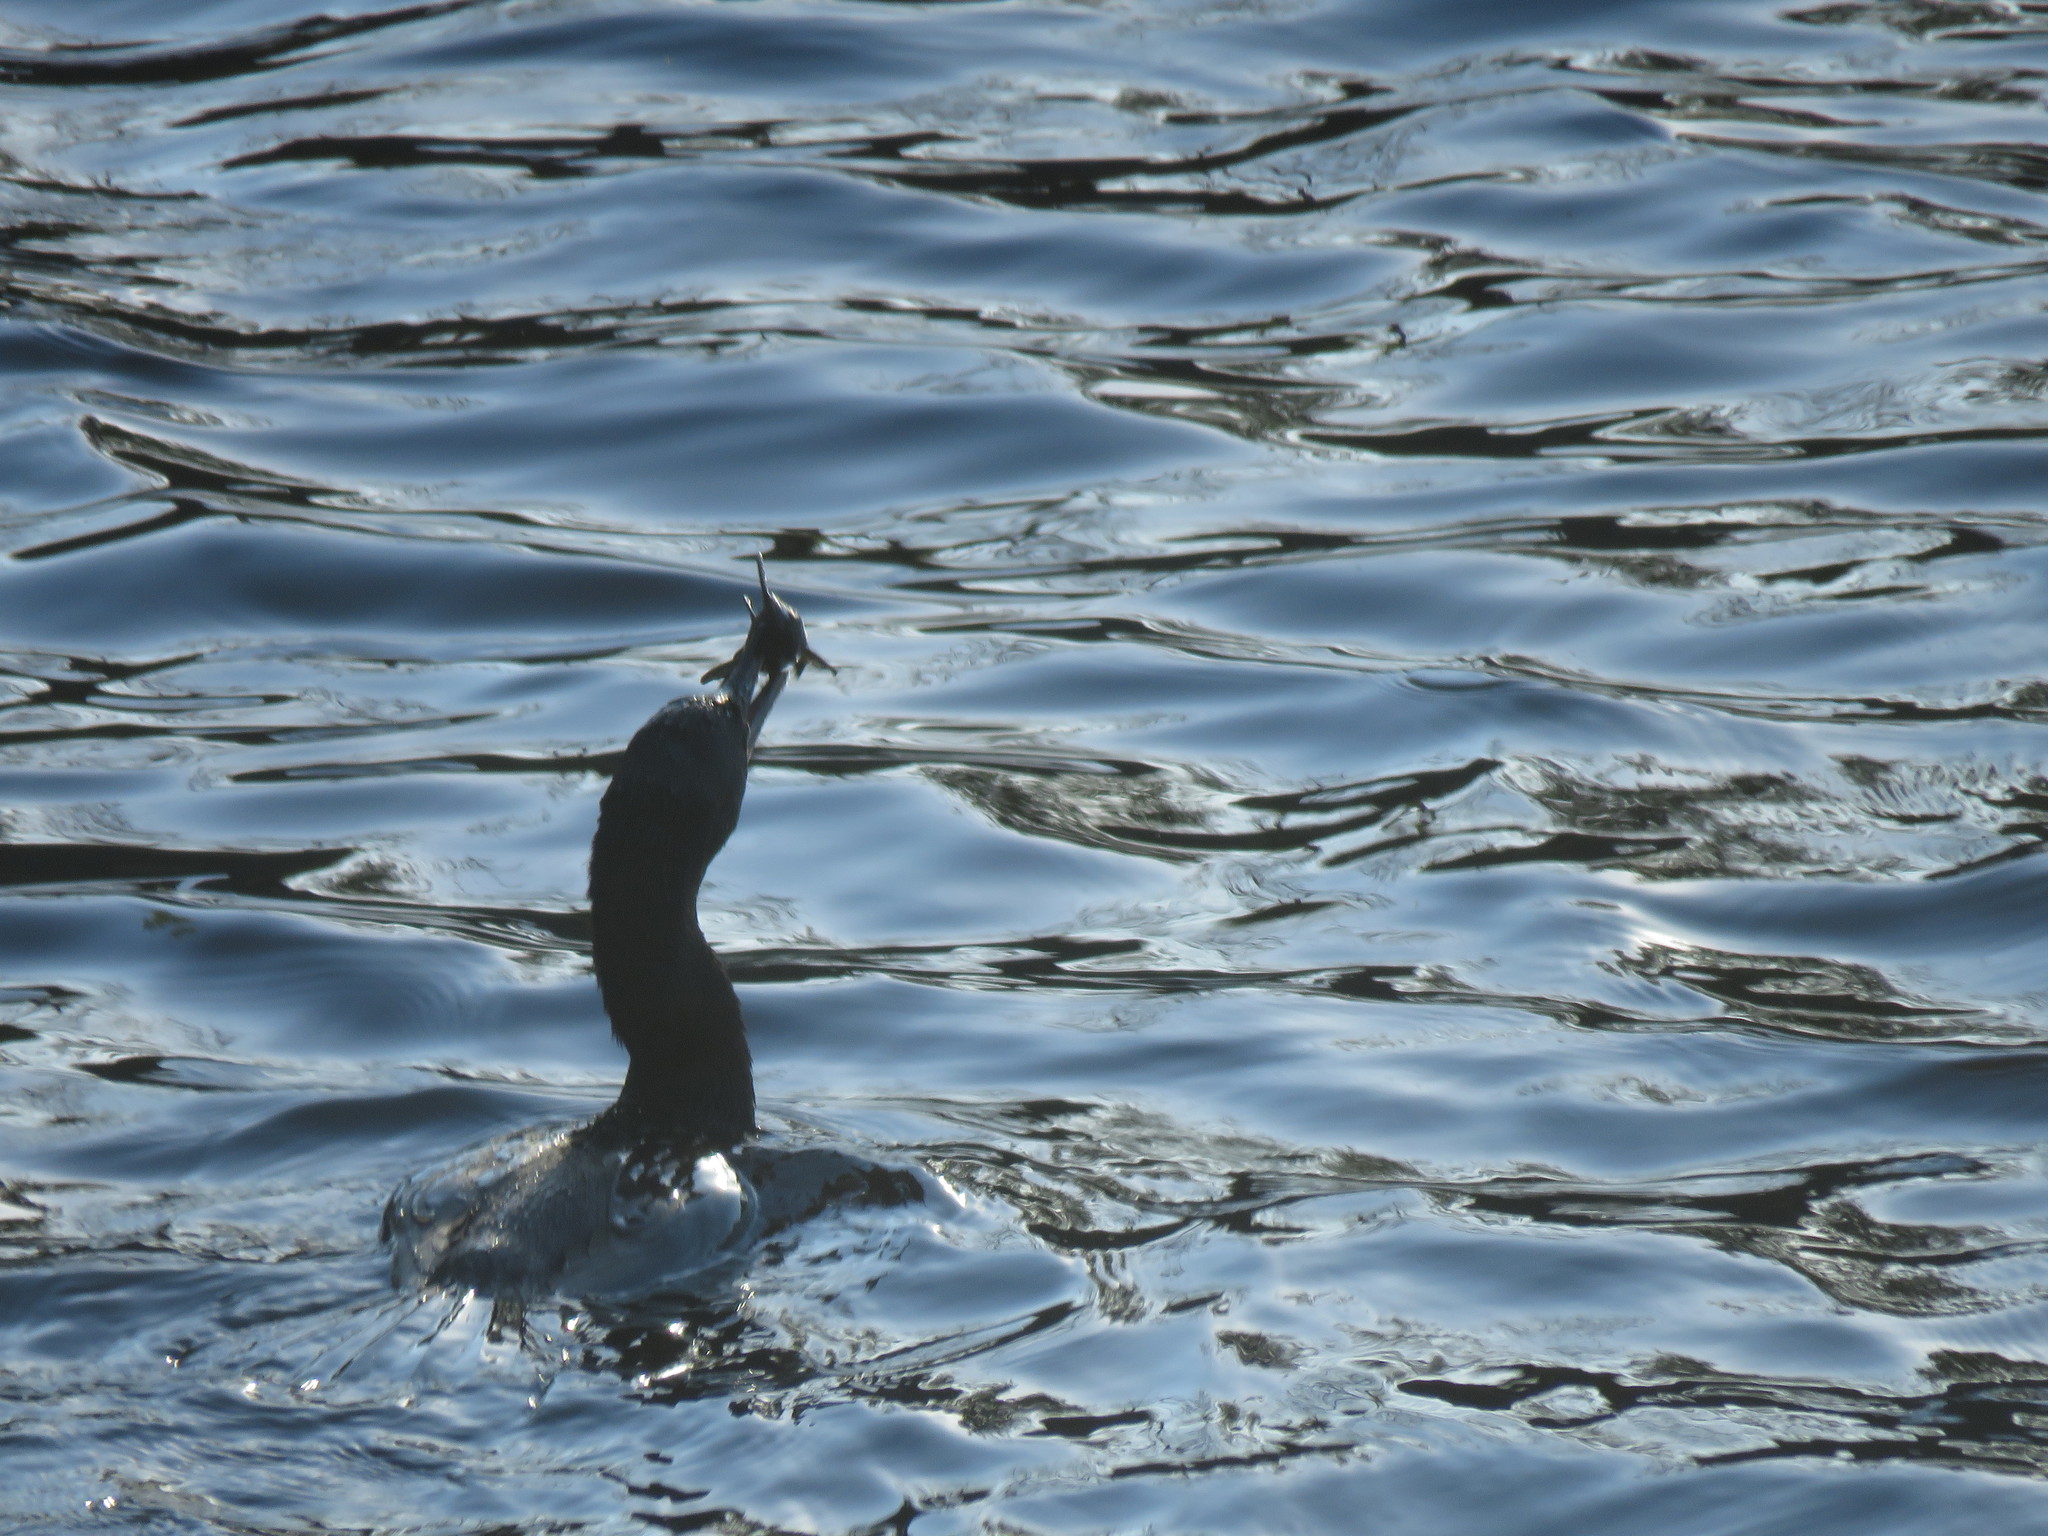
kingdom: Animalia
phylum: Chordata
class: Aves
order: Suliformes
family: Phalacrocoracidae
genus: Phalacrocorax
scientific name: Phalacrocorax brasilianus
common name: Neotropic cormorant
